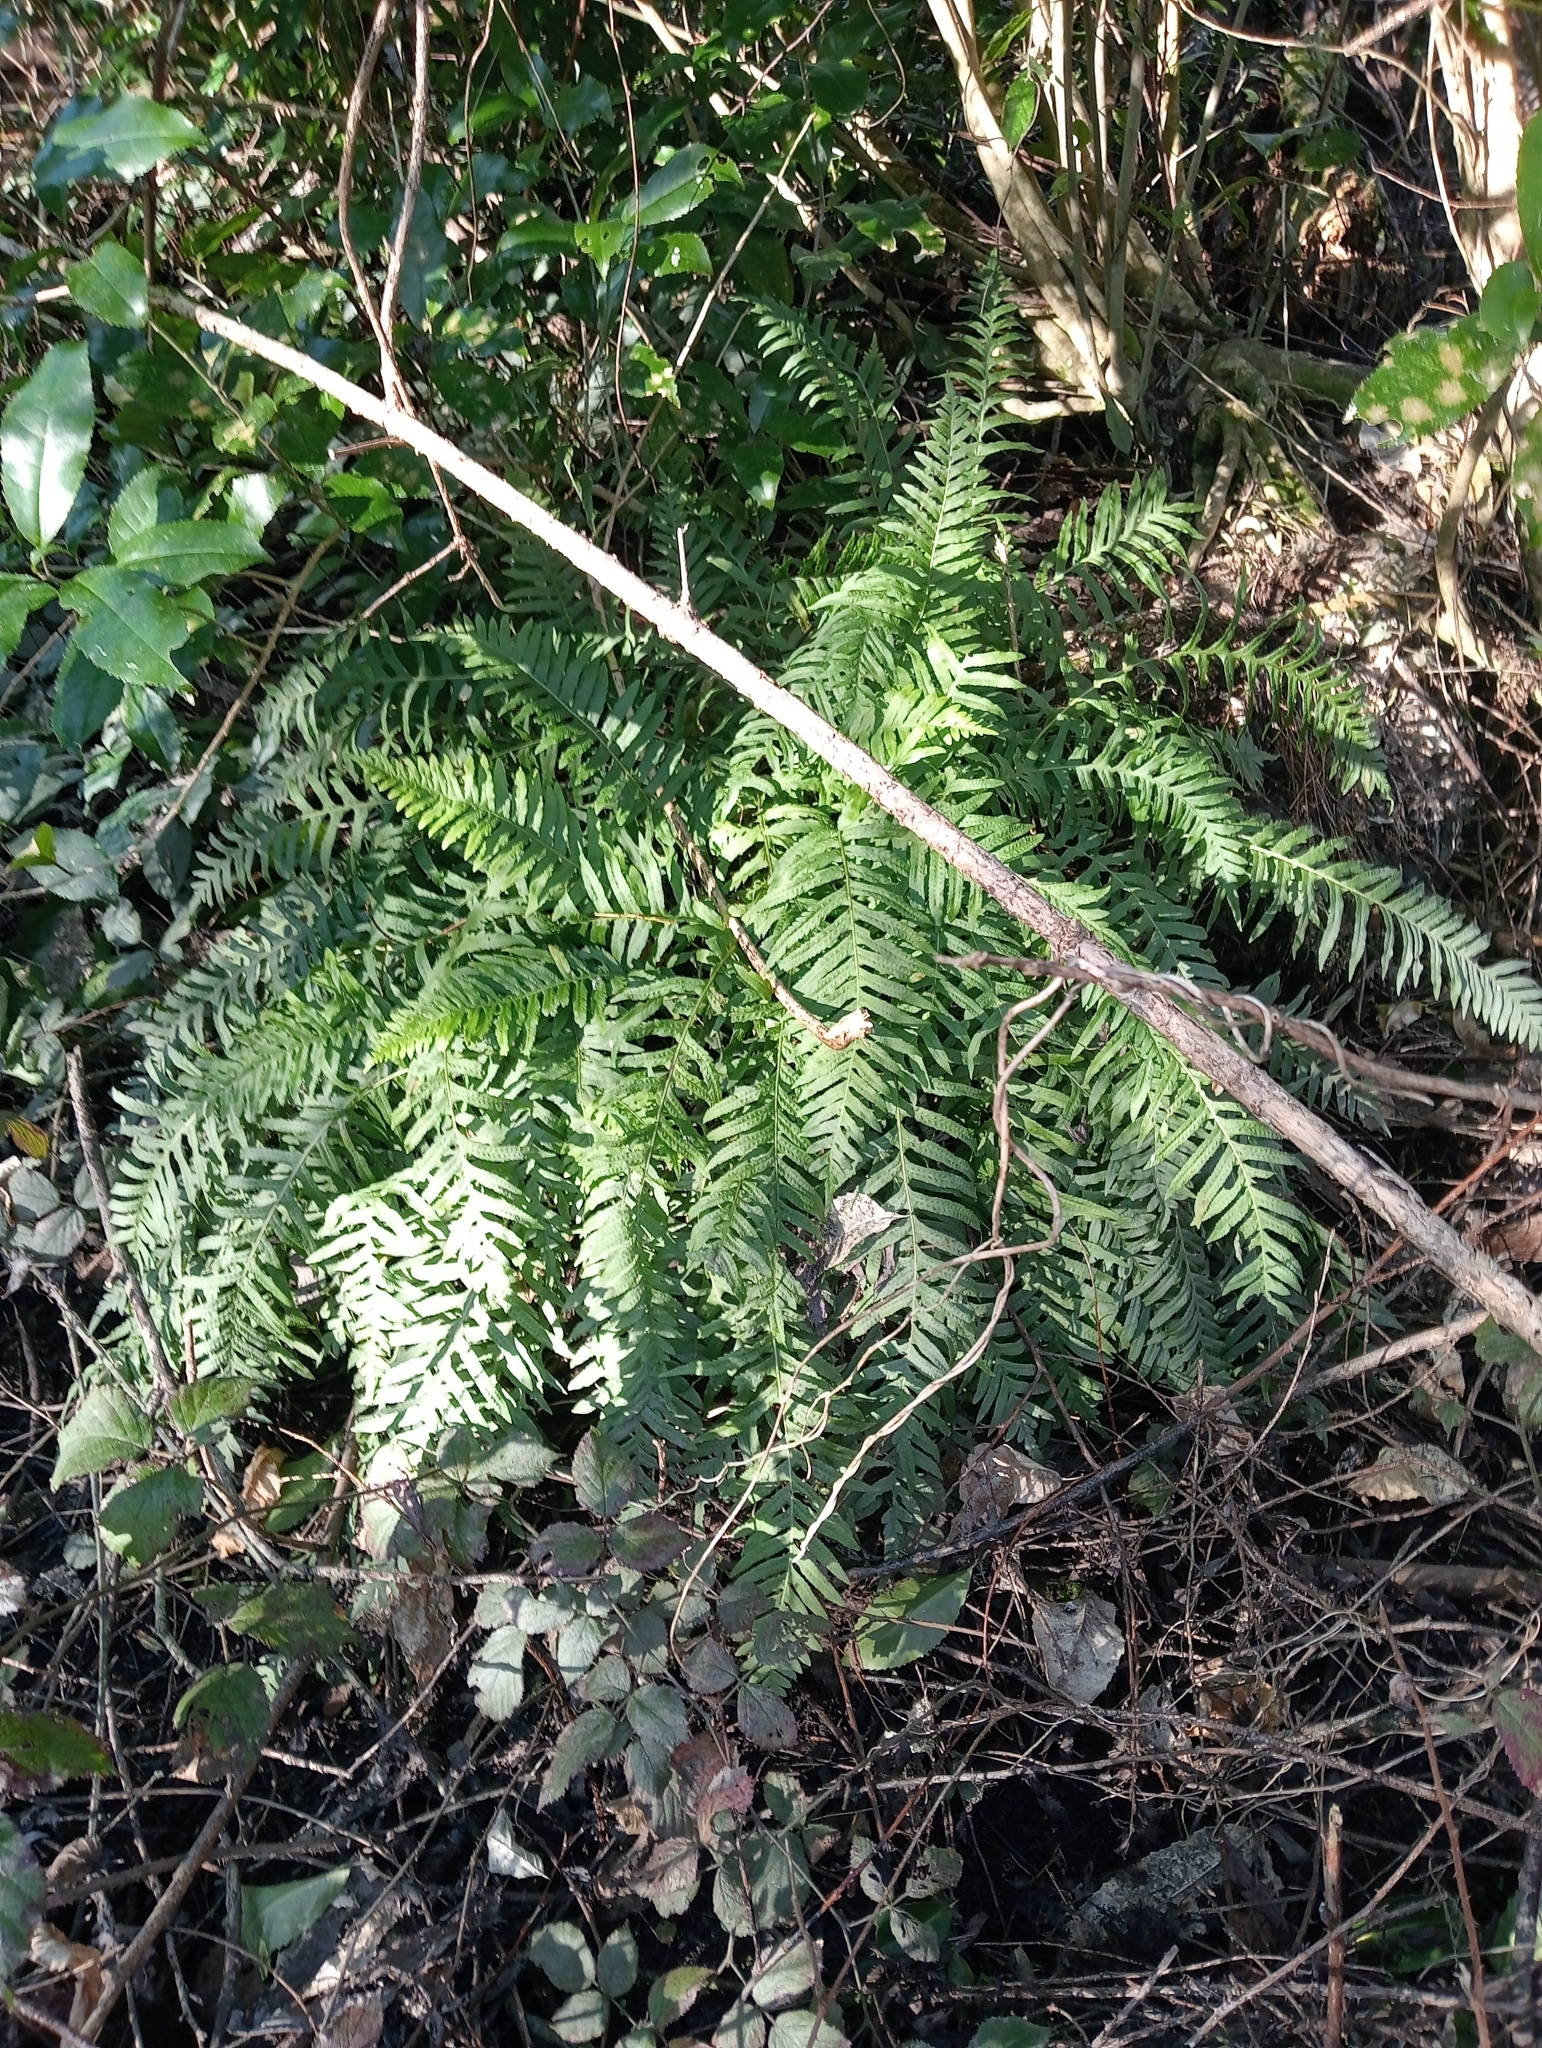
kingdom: Plantae
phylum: Tracheophyta
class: Polypodiopsida
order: Polypodiales
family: Polypodiaceae
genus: Polypodium
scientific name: Polypodium vulgare
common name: Common polypody
